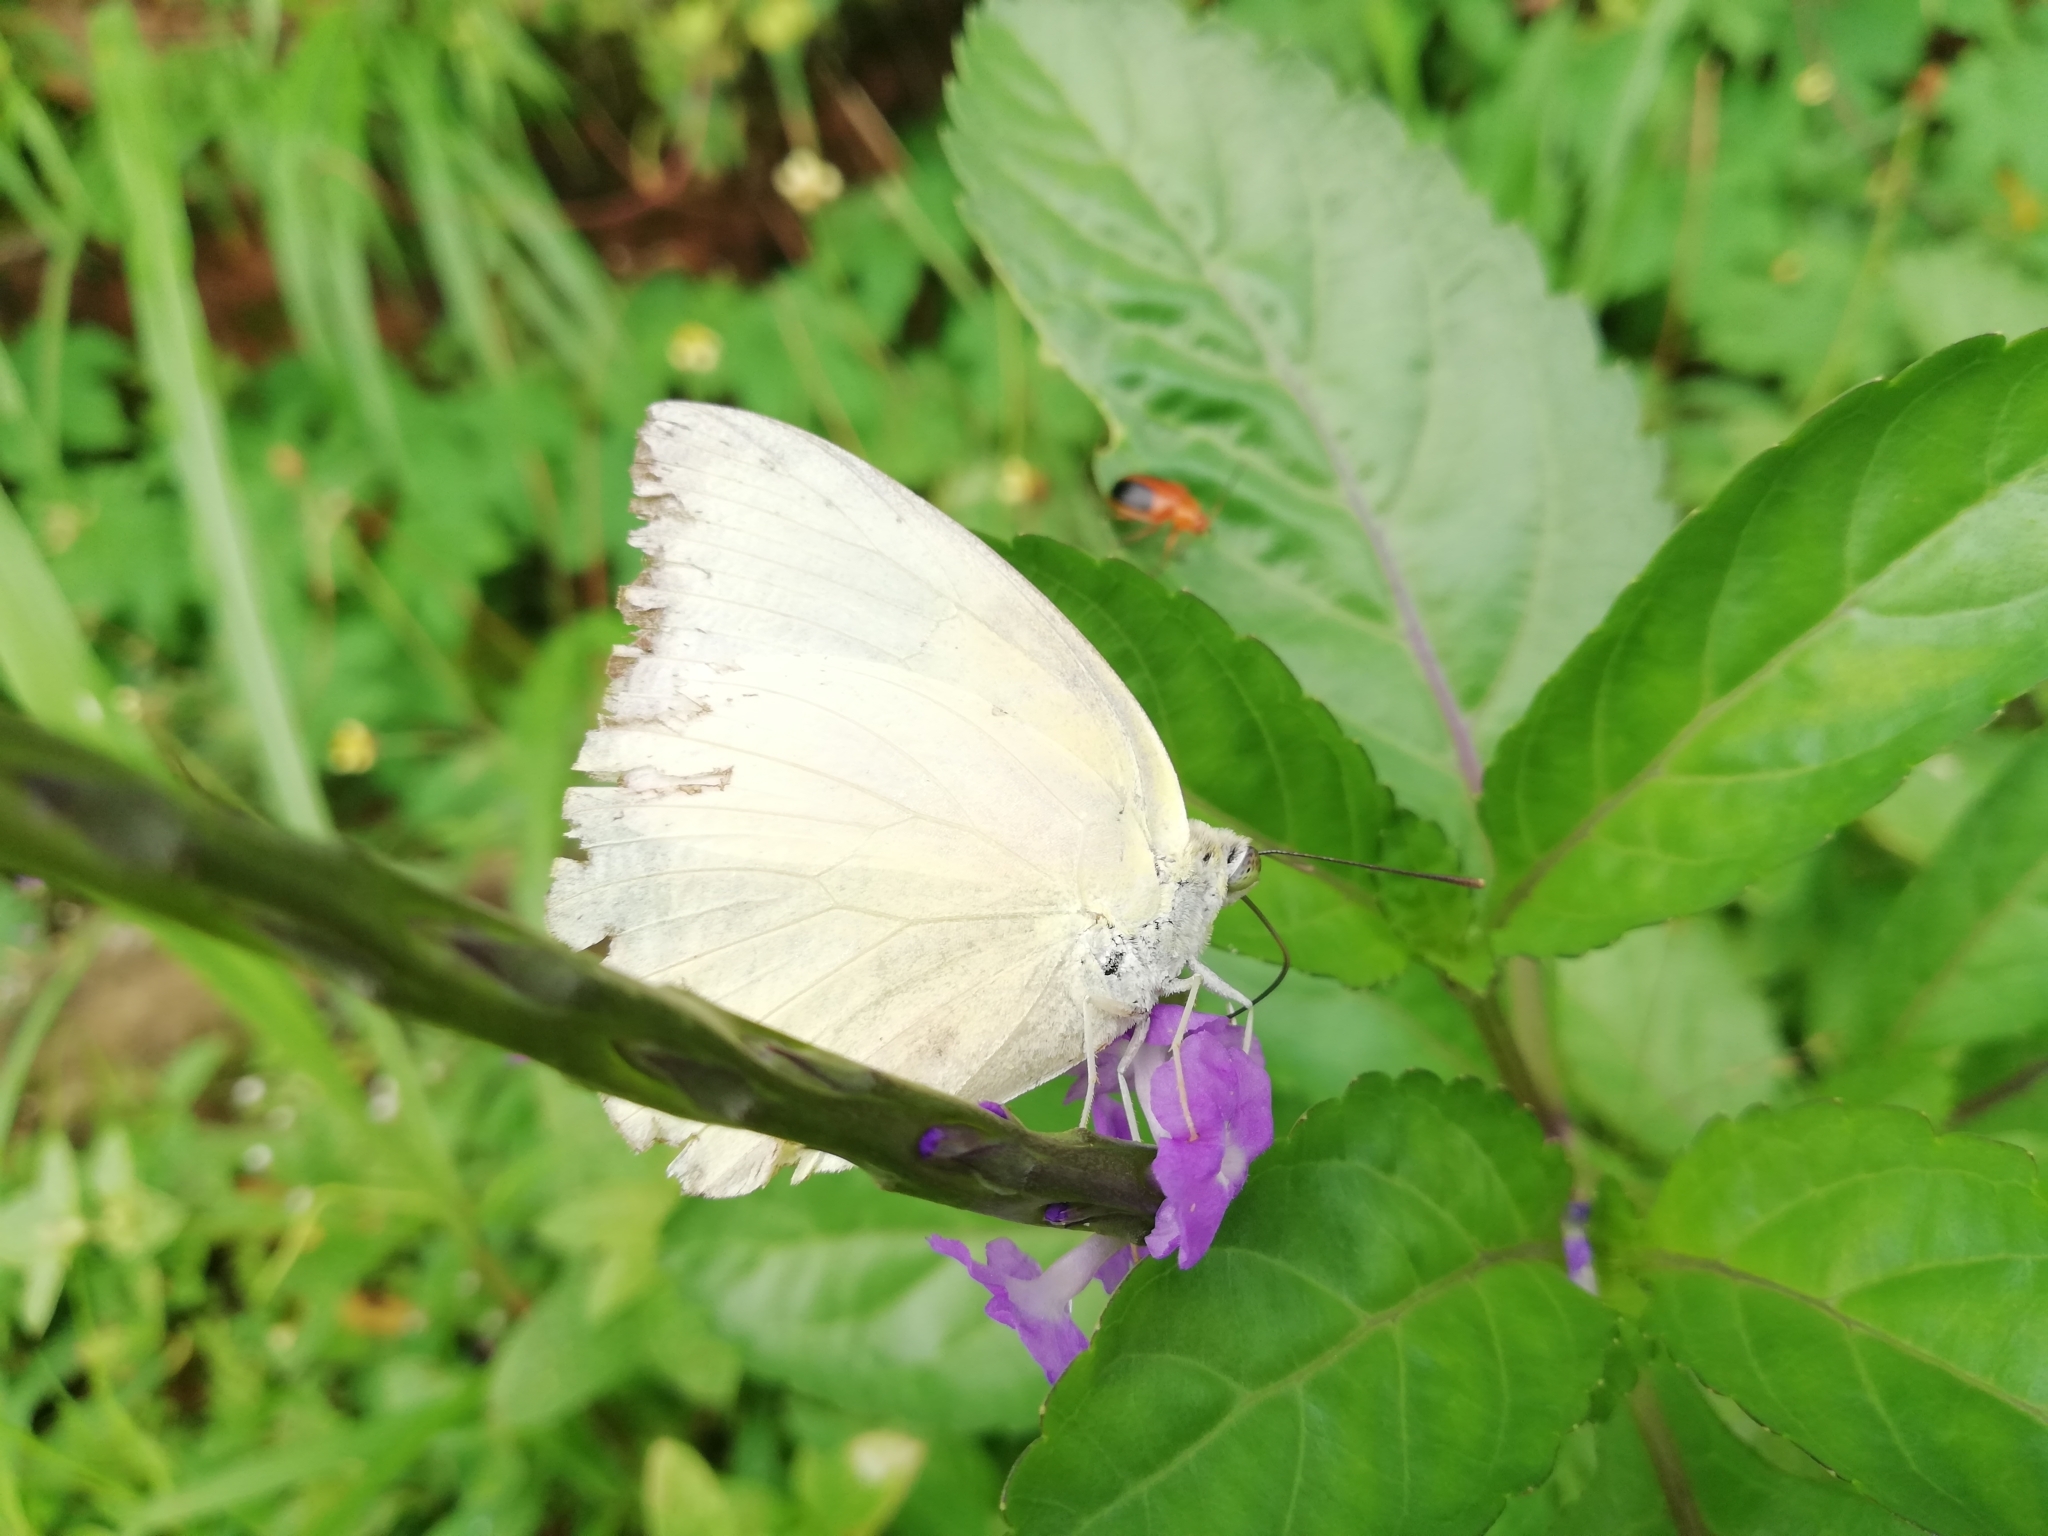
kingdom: Animalia
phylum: Arthropoda
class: Insecta
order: Lepidoptera
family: Pieridae
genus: Catopsilia
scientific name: Catopsilia pomona
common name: Common emigrant
